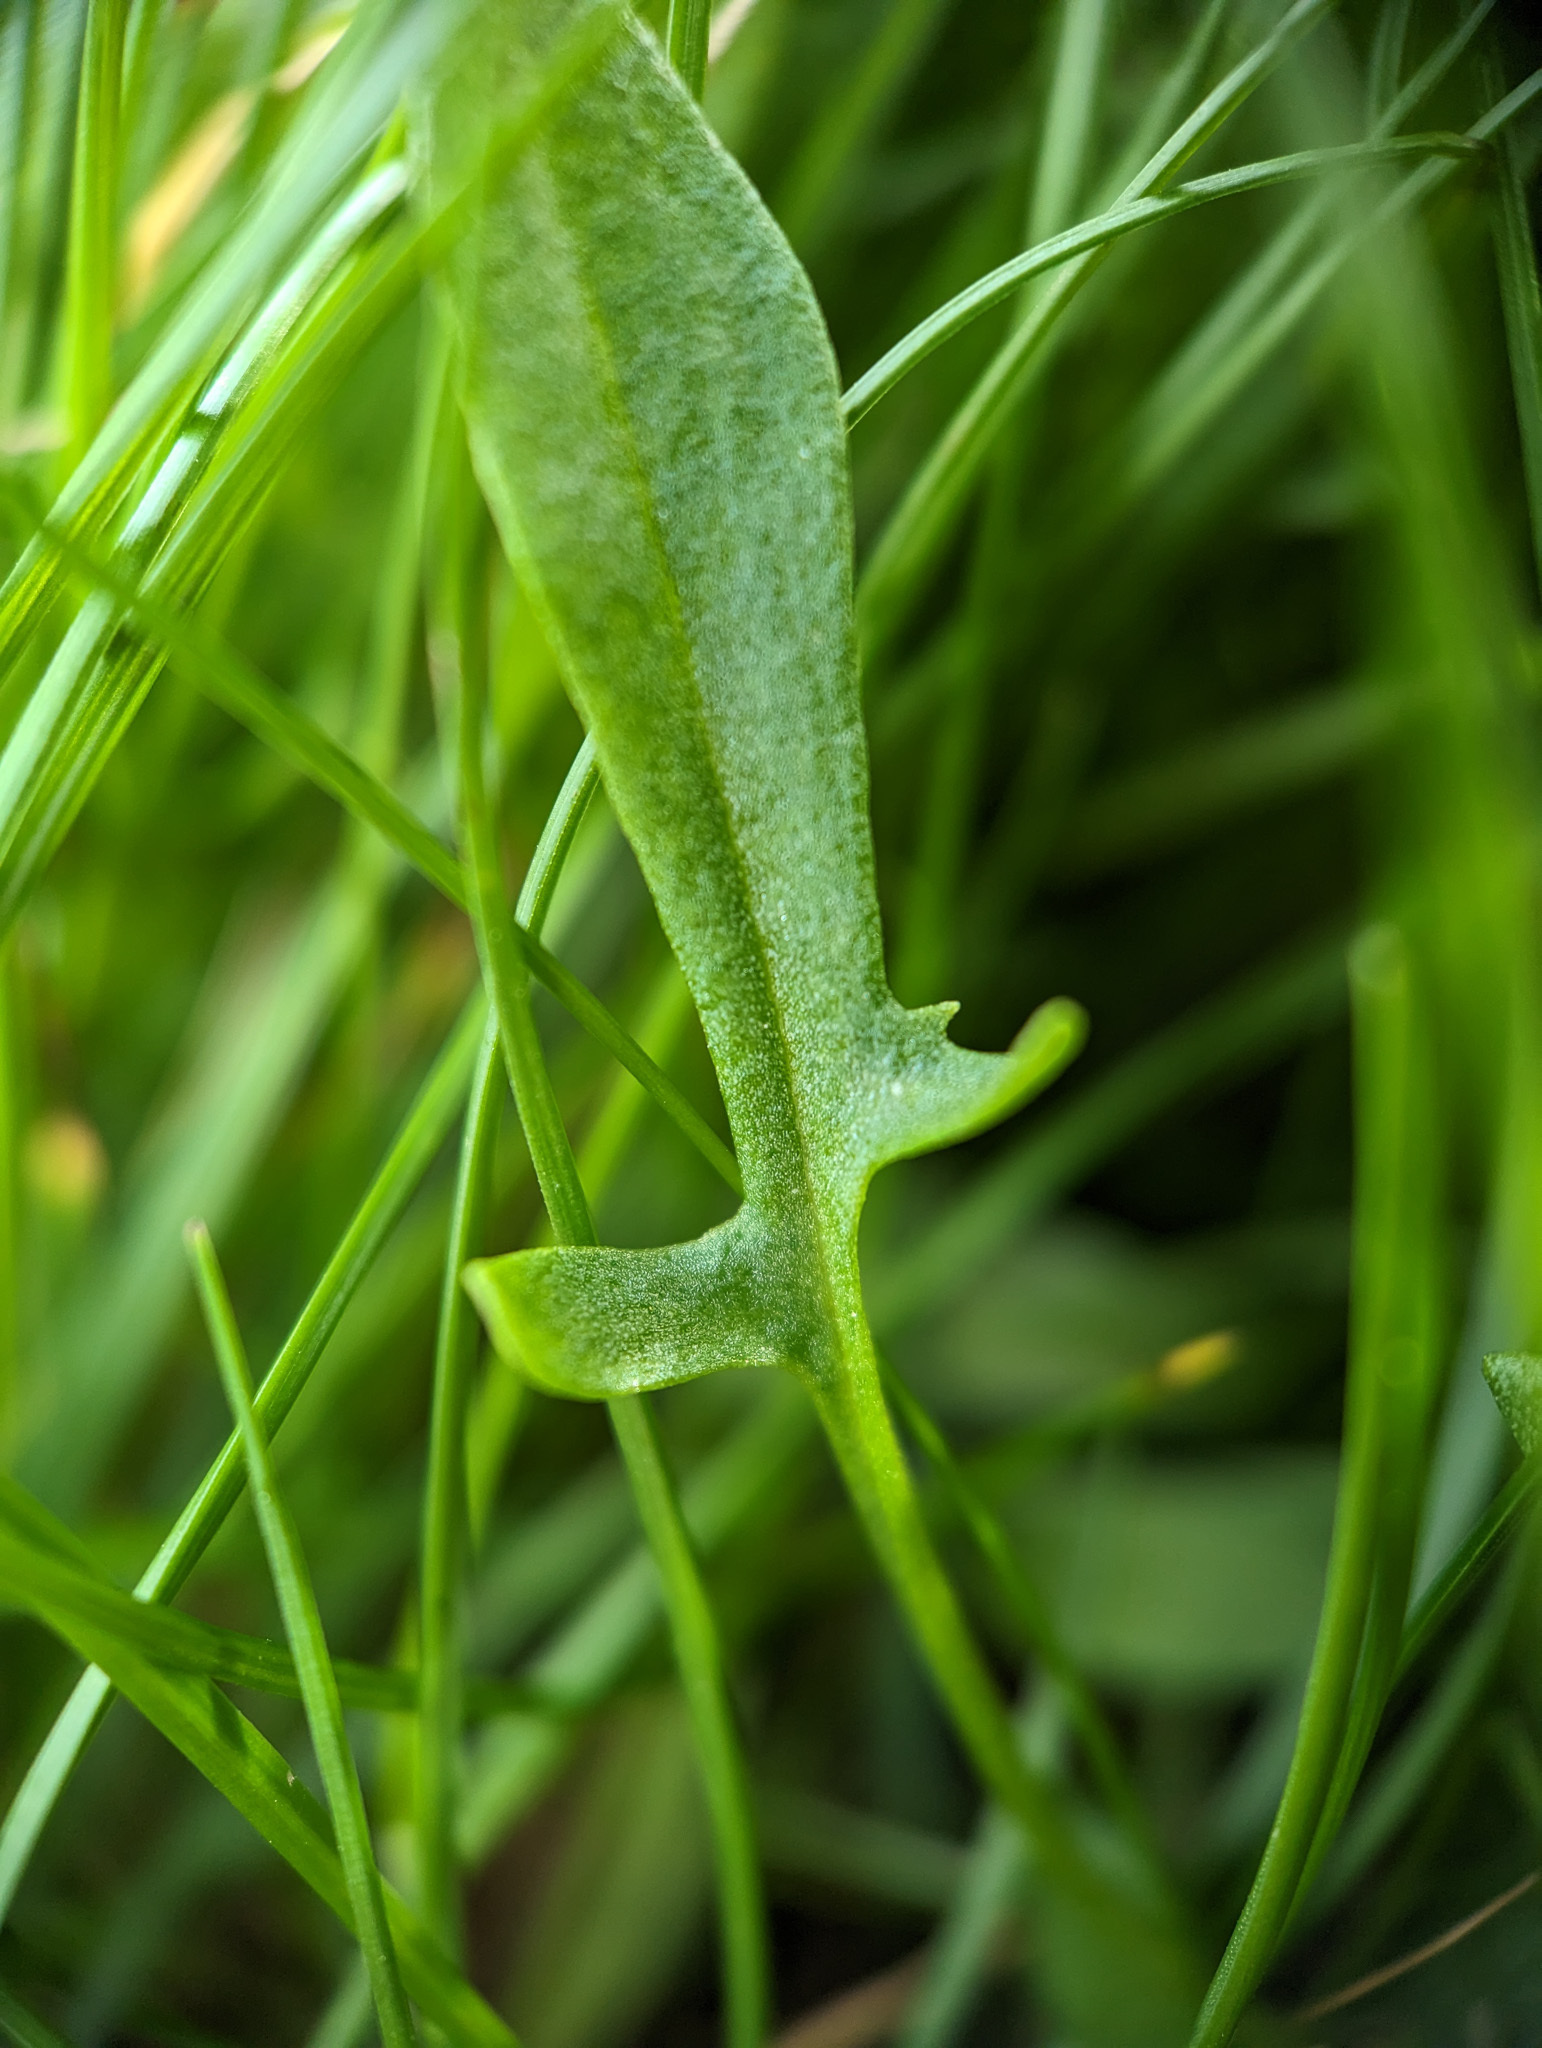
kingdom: Plantae
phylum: Tracheophyta
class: Magnoliopsida
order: Caryophyllales
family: Polygonaceae
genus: Rumex
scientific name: Rumex acetosella
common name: Common sheep sorrel
